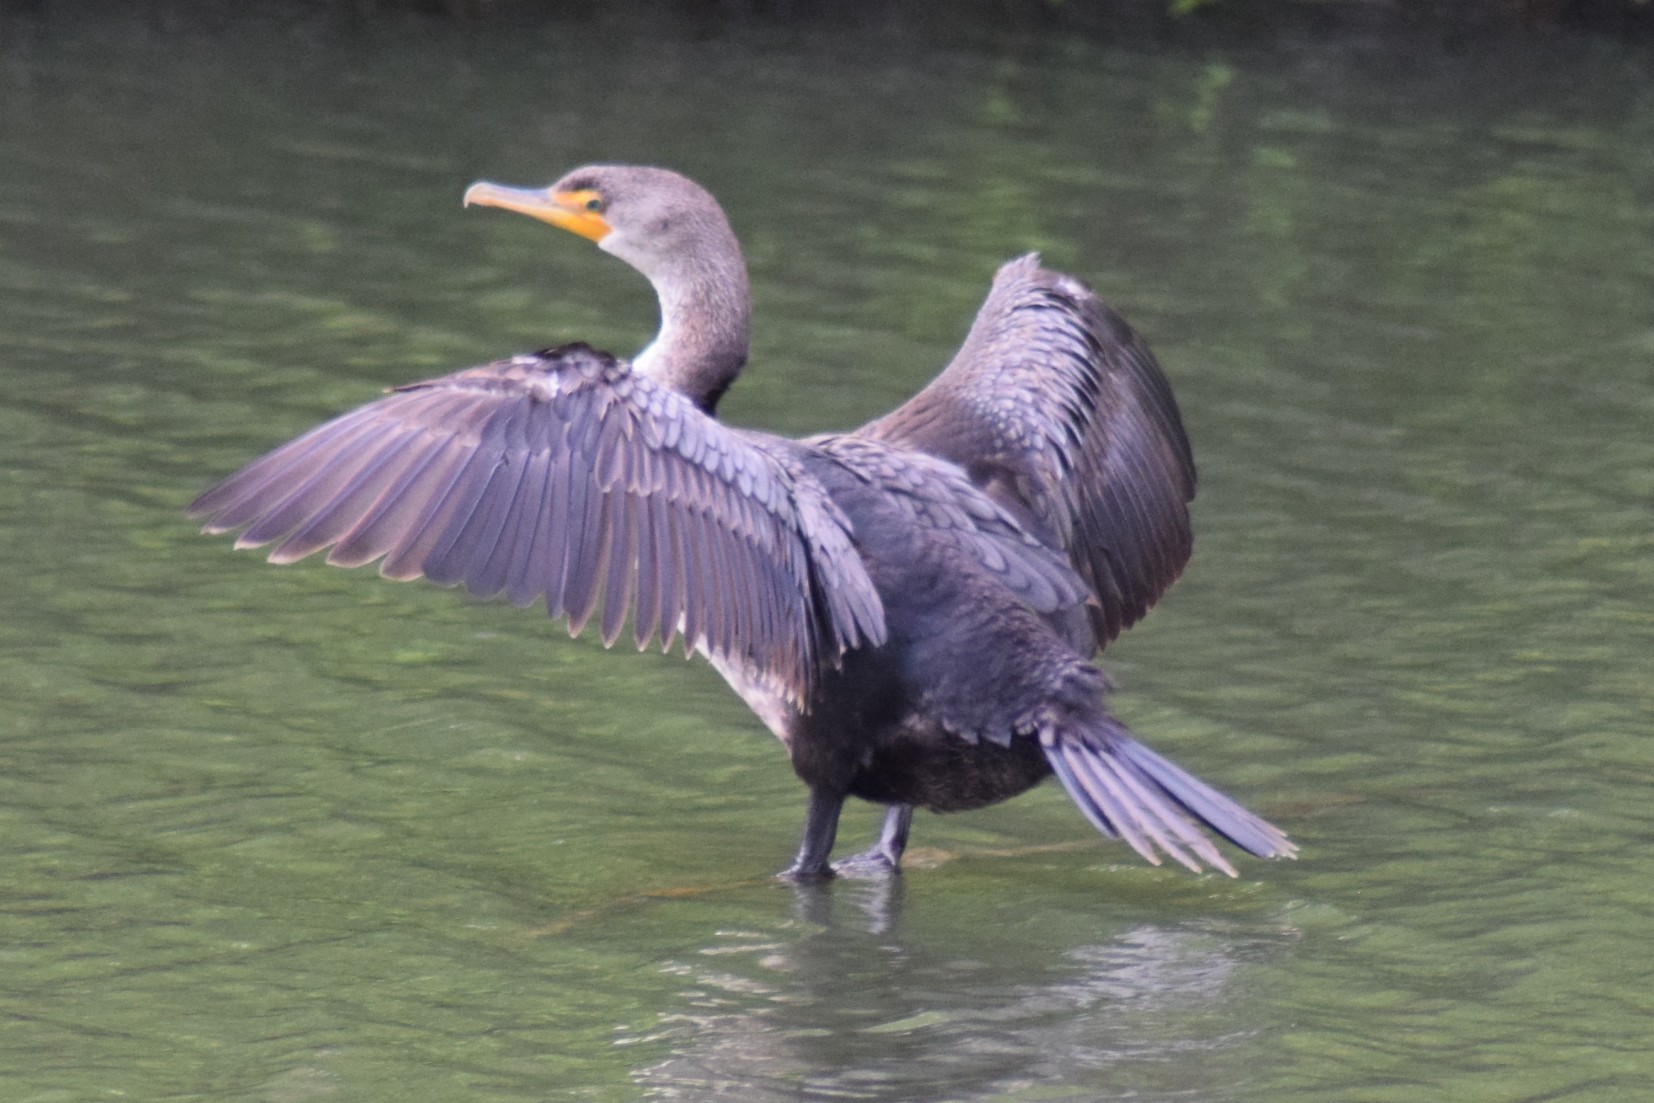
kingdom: Animalia
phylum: Chordata
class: Aves
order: Suliformes
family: Phalacrocoracidae
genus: Phalacrocorax
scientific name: Phalacrocorax auritus
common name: Double-crested cormorant
